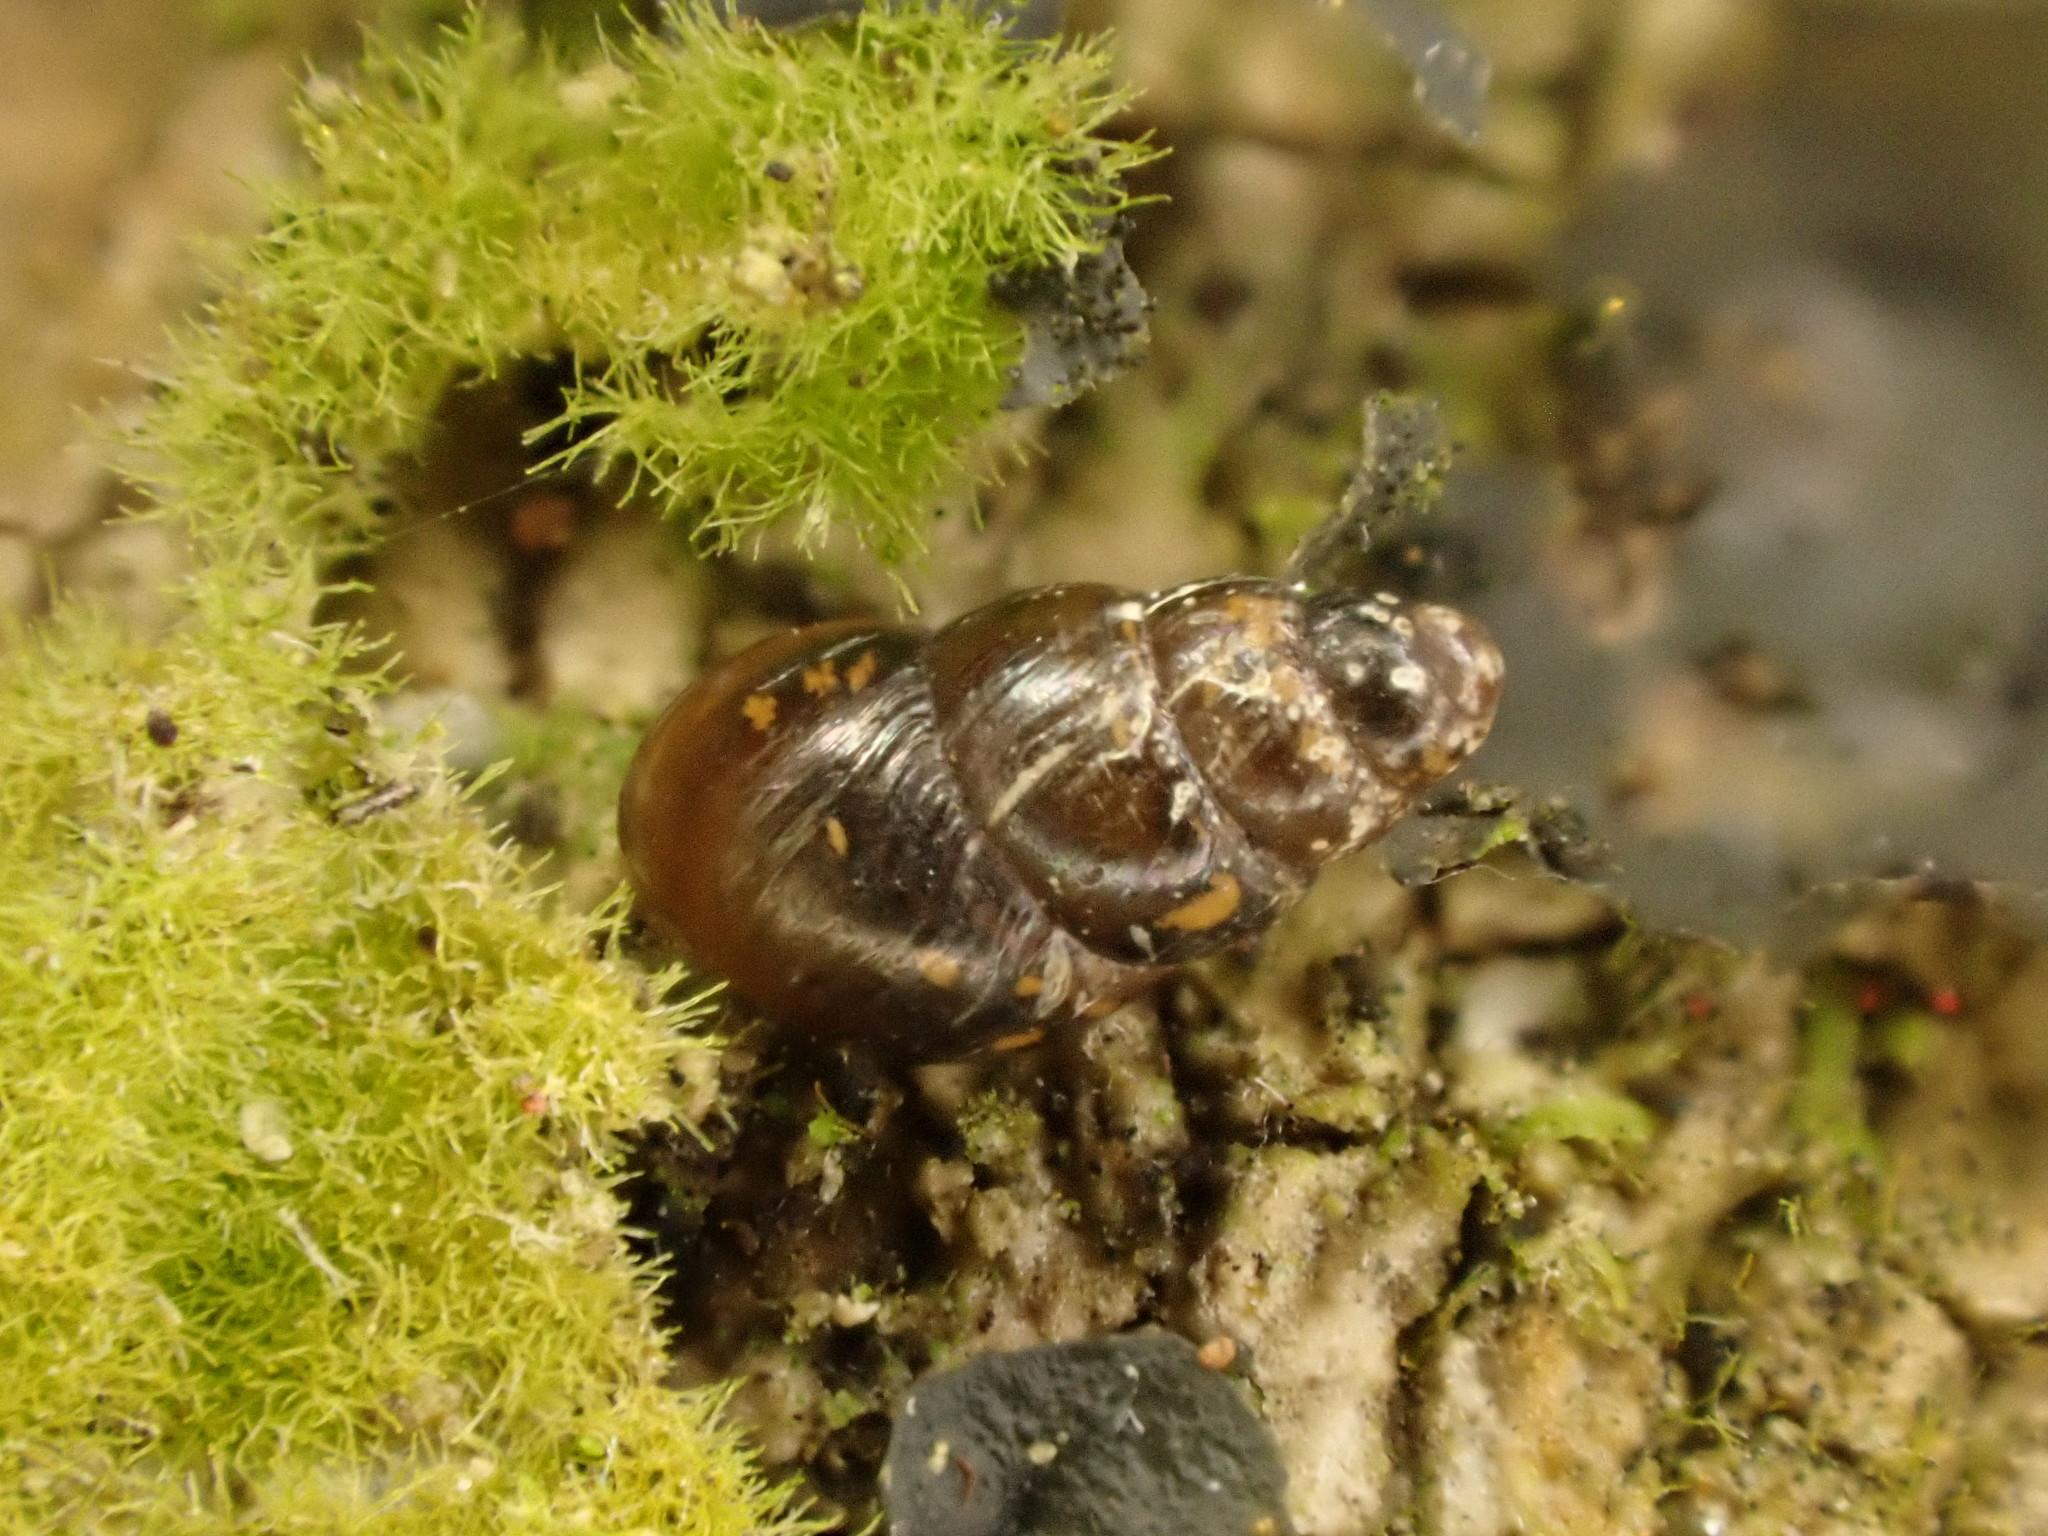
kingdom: Animalia
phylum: Mollusca
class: Gastropoda
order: Stylommatophora
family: Achatinellidae
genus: Tornatellinops
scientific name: Tornatellinops novoseelandicus
